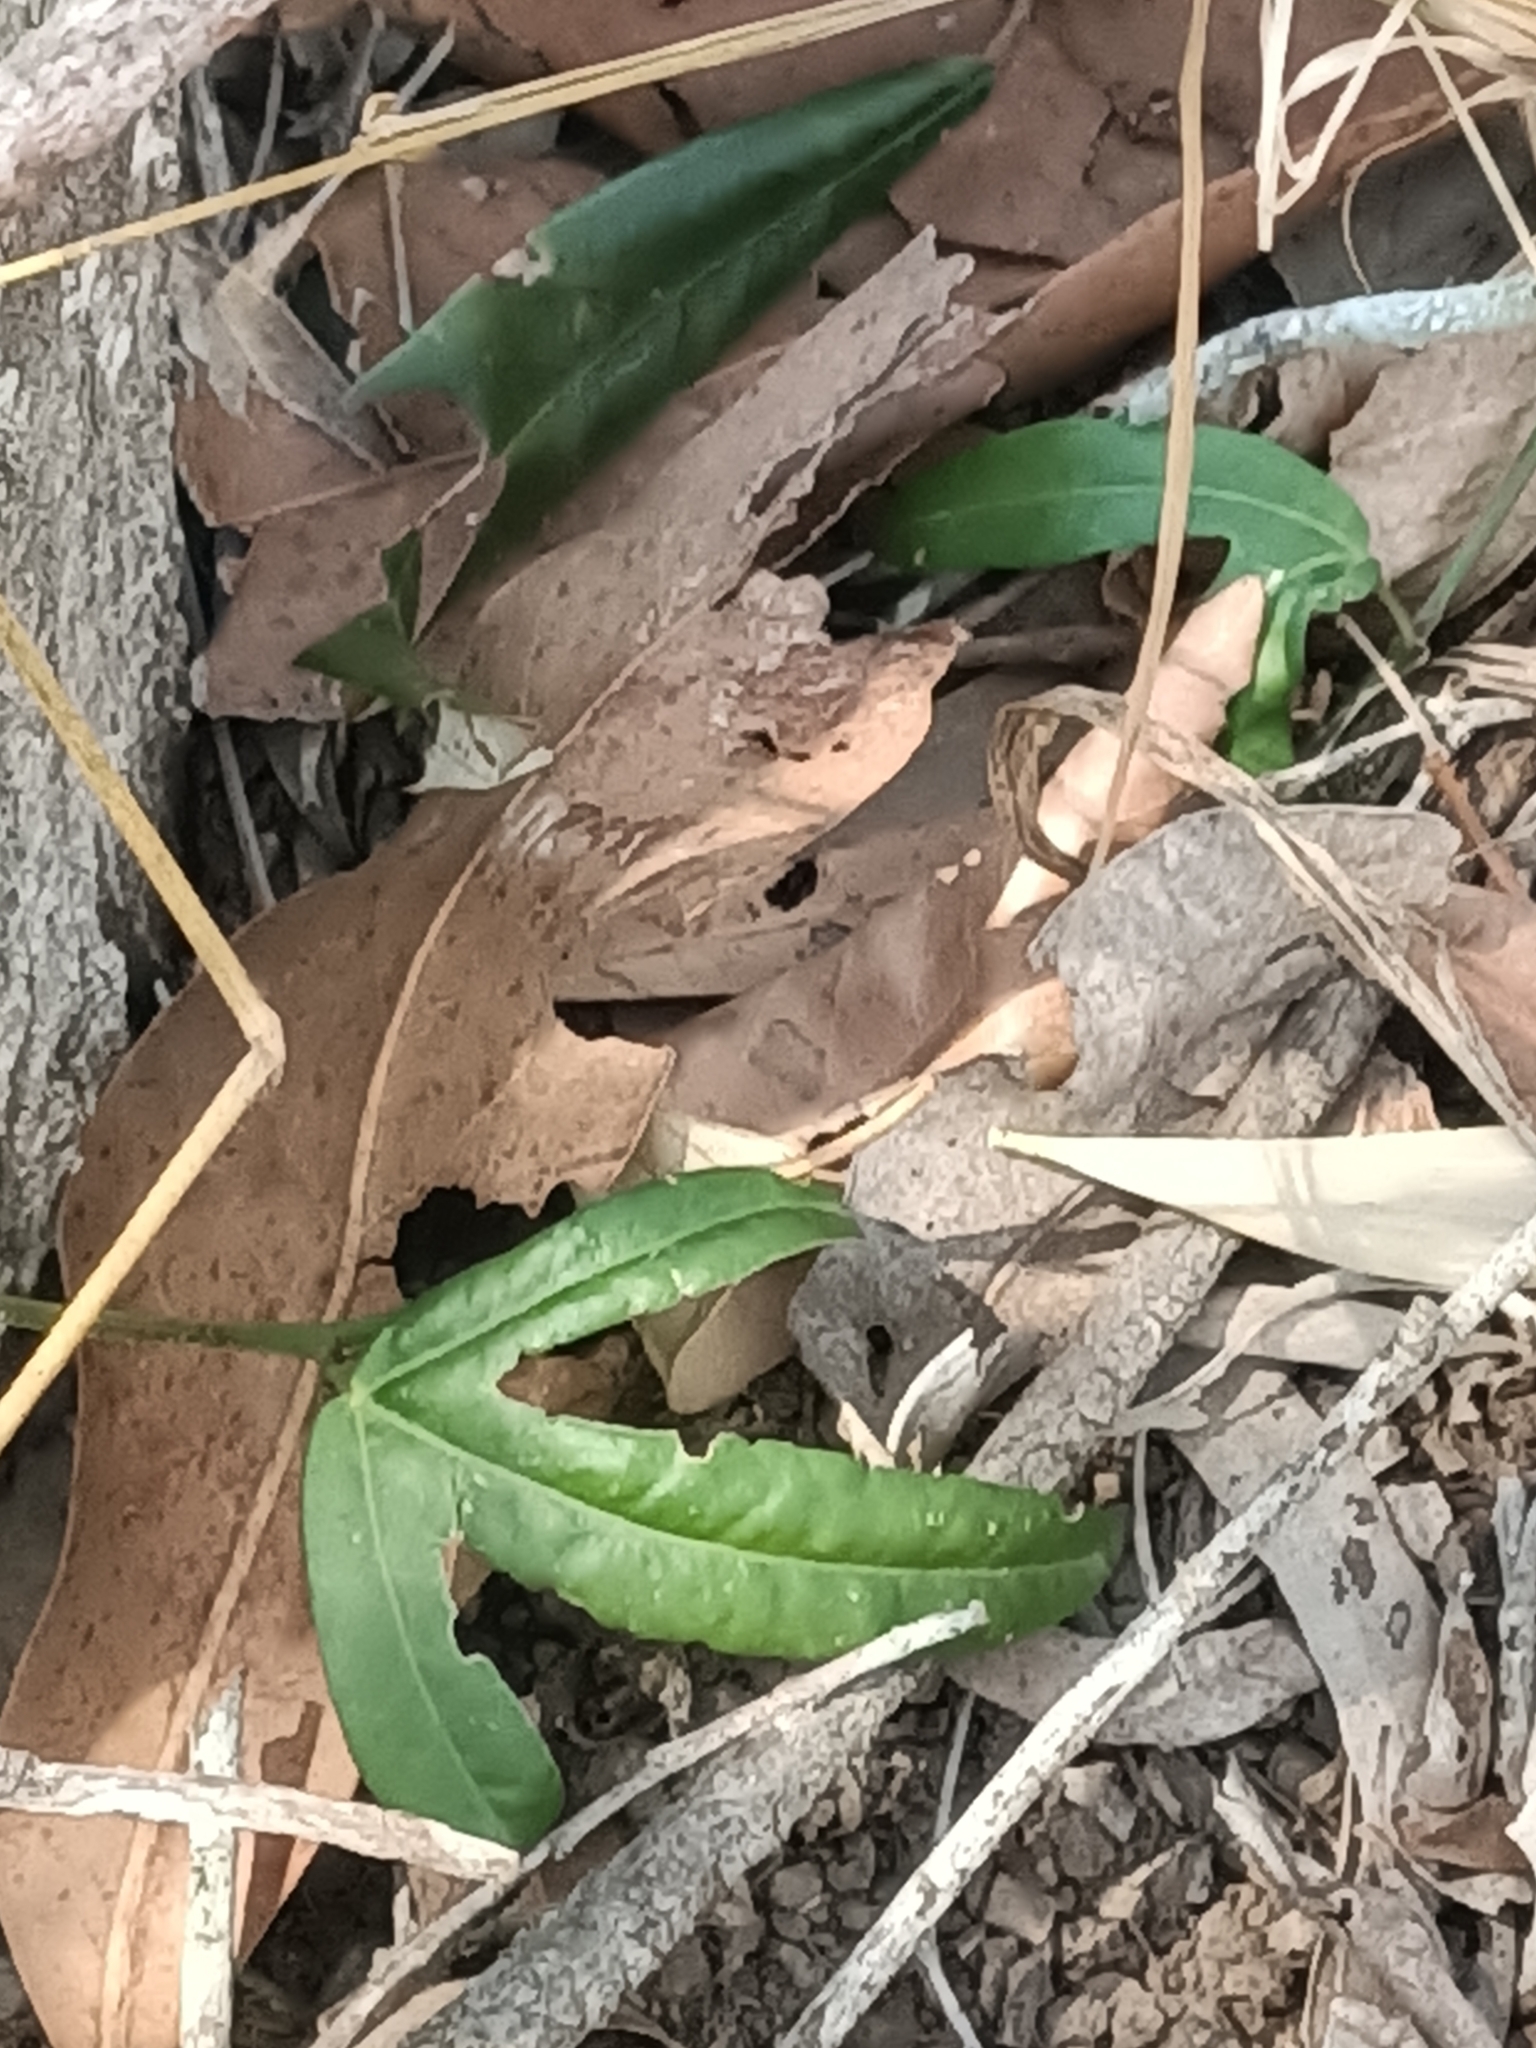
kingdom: Plantae
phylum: Tracheophyta
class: Magnoliopsida
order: Malpighiales
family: Passifloraceae
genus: Passiflora
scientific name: Passiflora pallida
